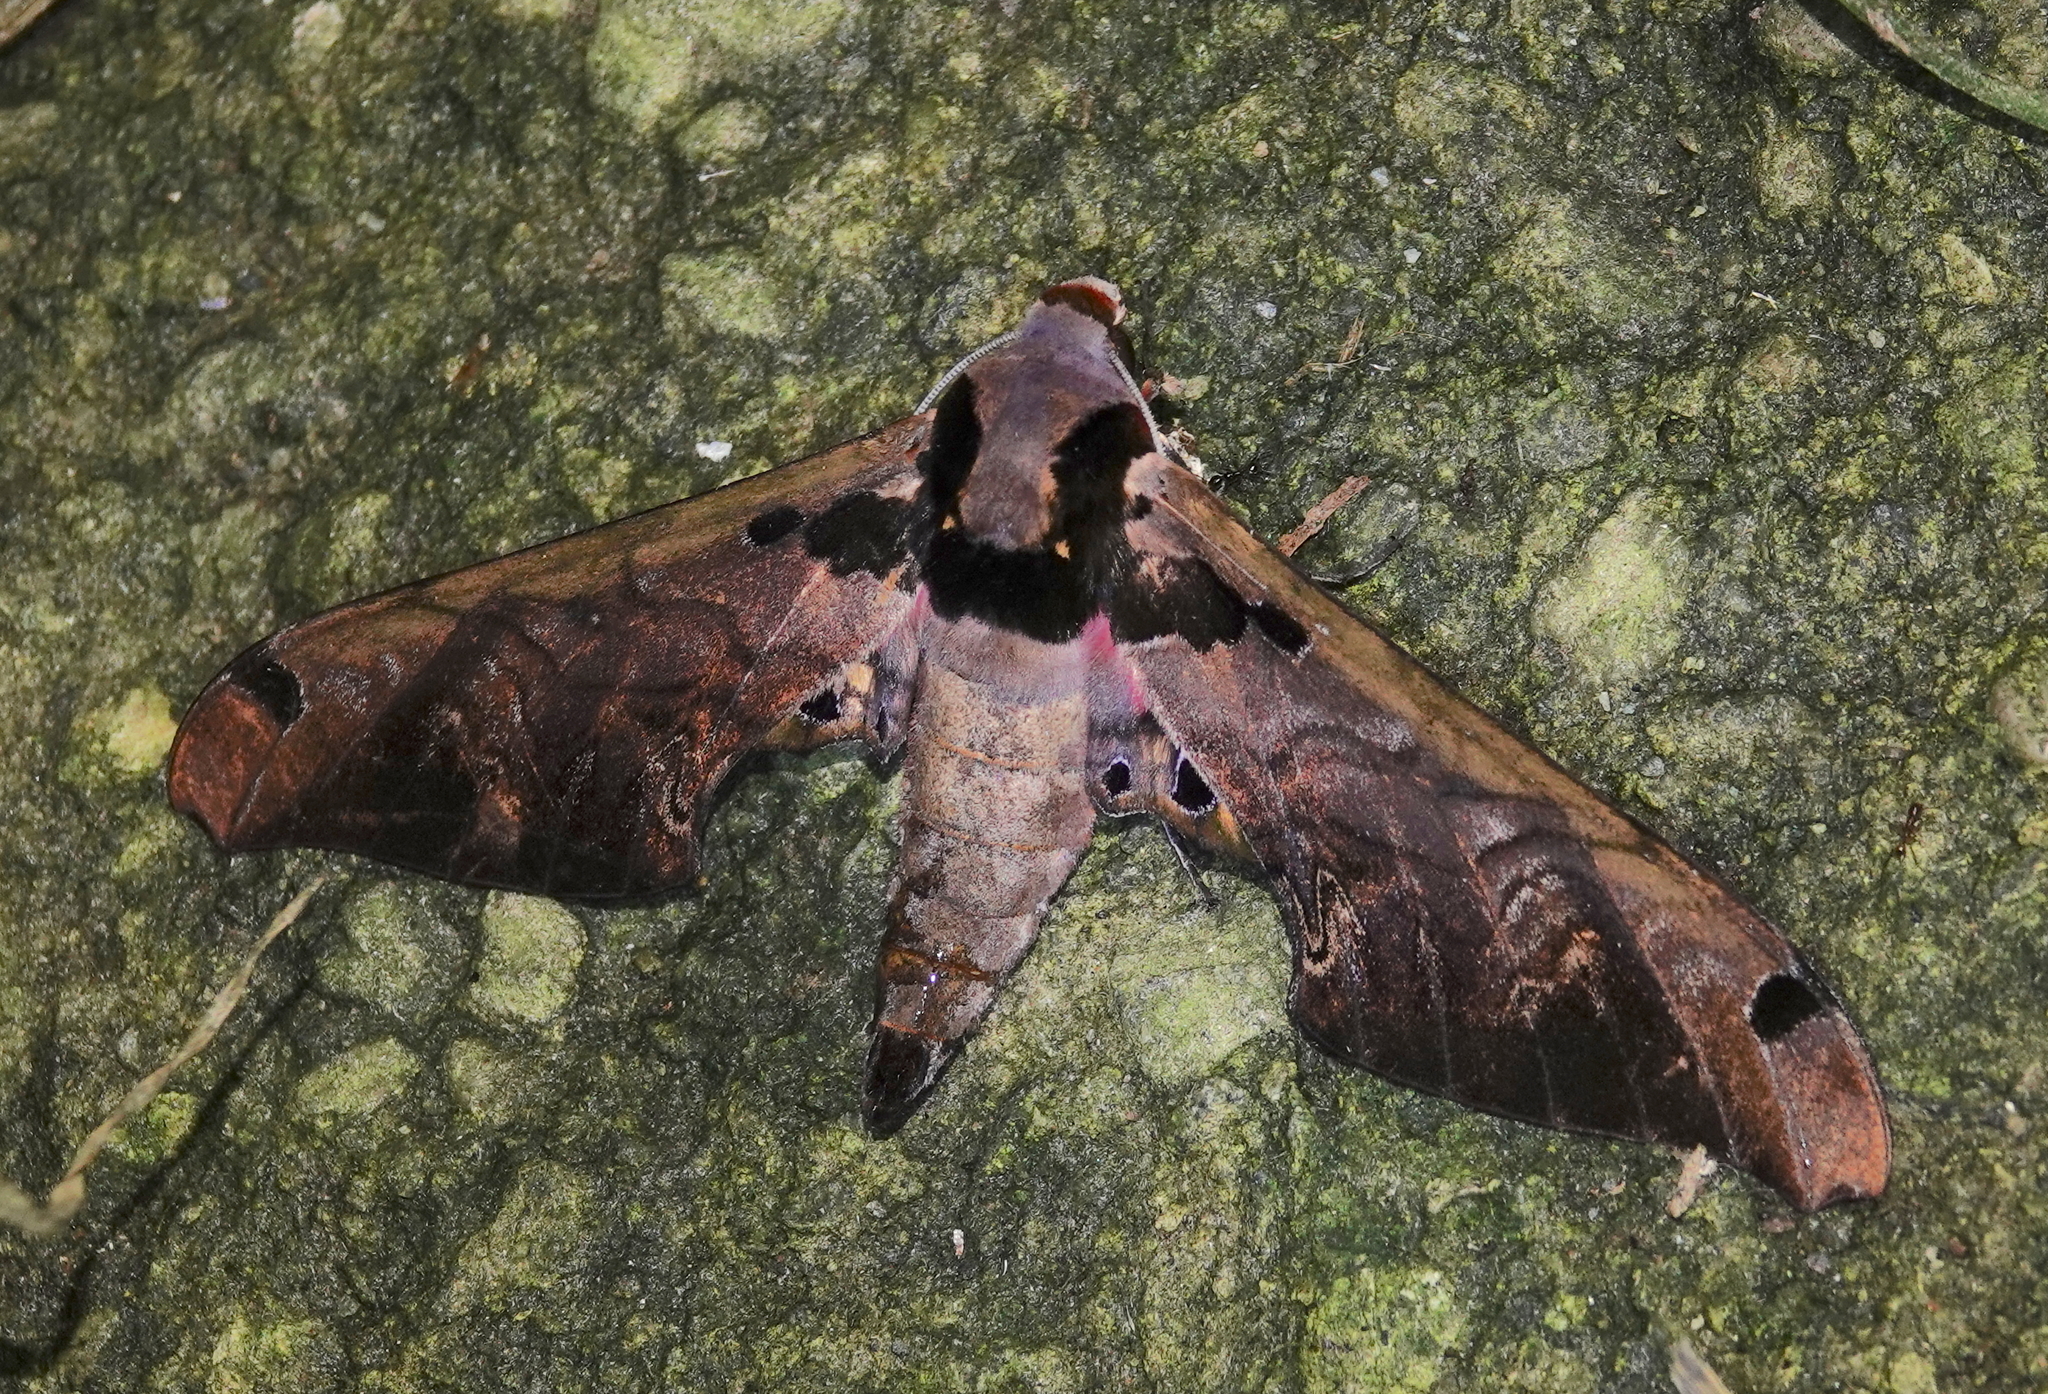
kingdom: Animalia
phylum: Arthropoda
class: Insecta
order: Lepidoptera
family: Sphingidae
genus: Adhemarius
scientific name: Adhemarius sexoculata
